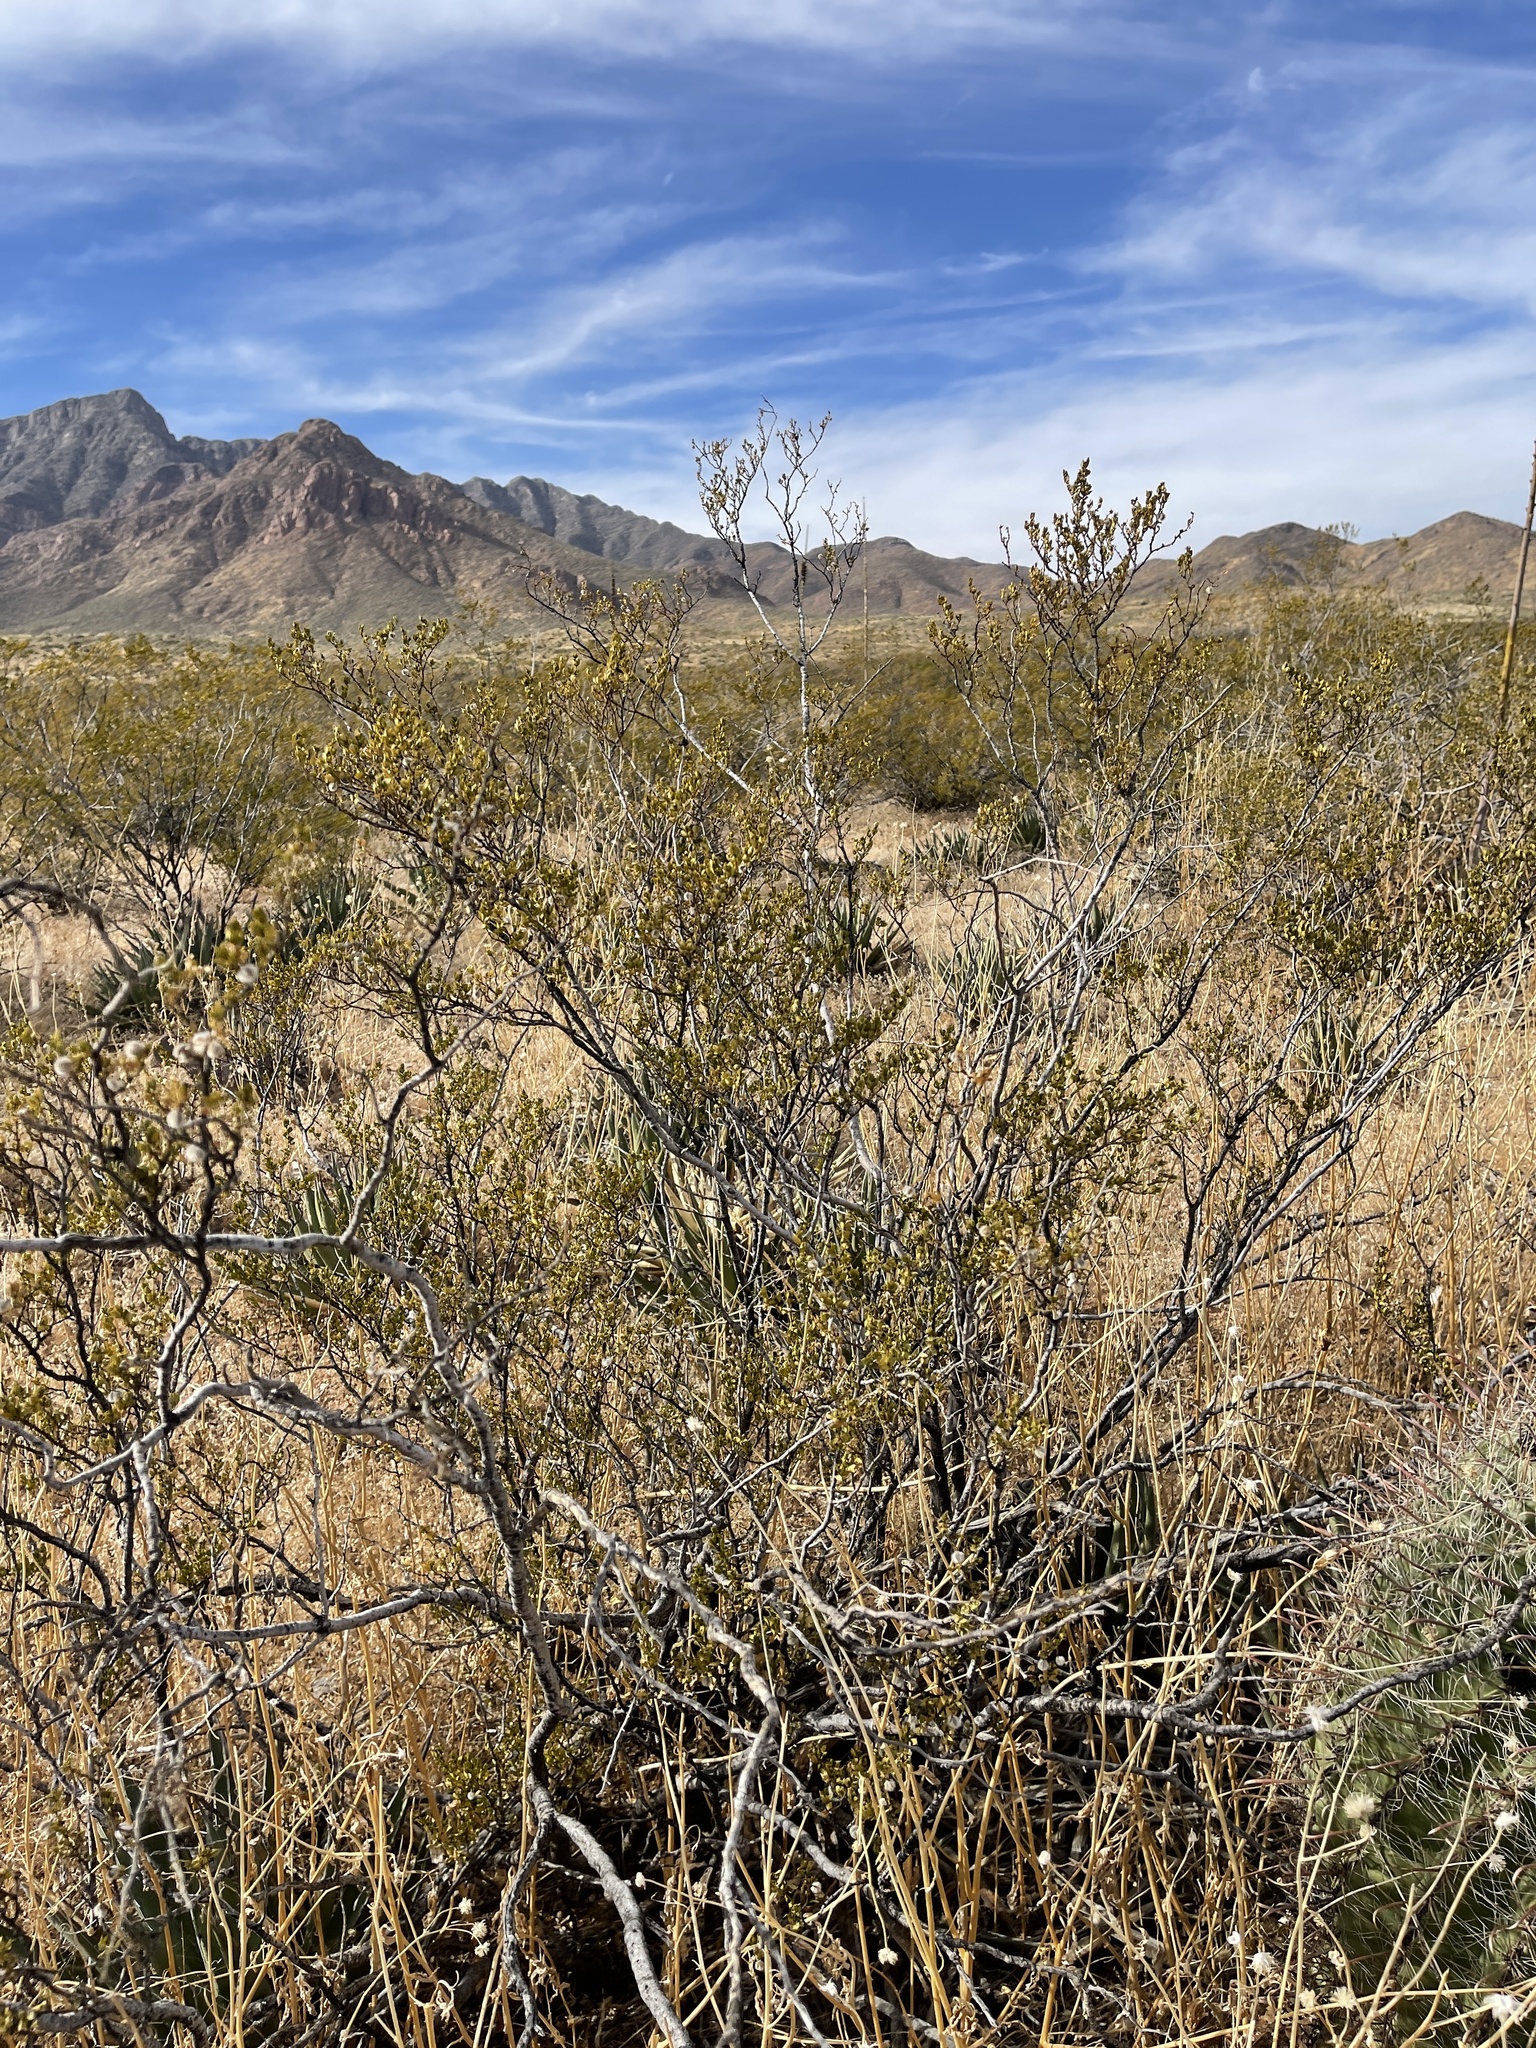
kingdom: Plantae
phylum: Tracheophyta
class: Magnoliopsida
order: Zygophyllales
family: Zygophyllaceae
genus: Larrea
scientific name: Larrea tridentata
